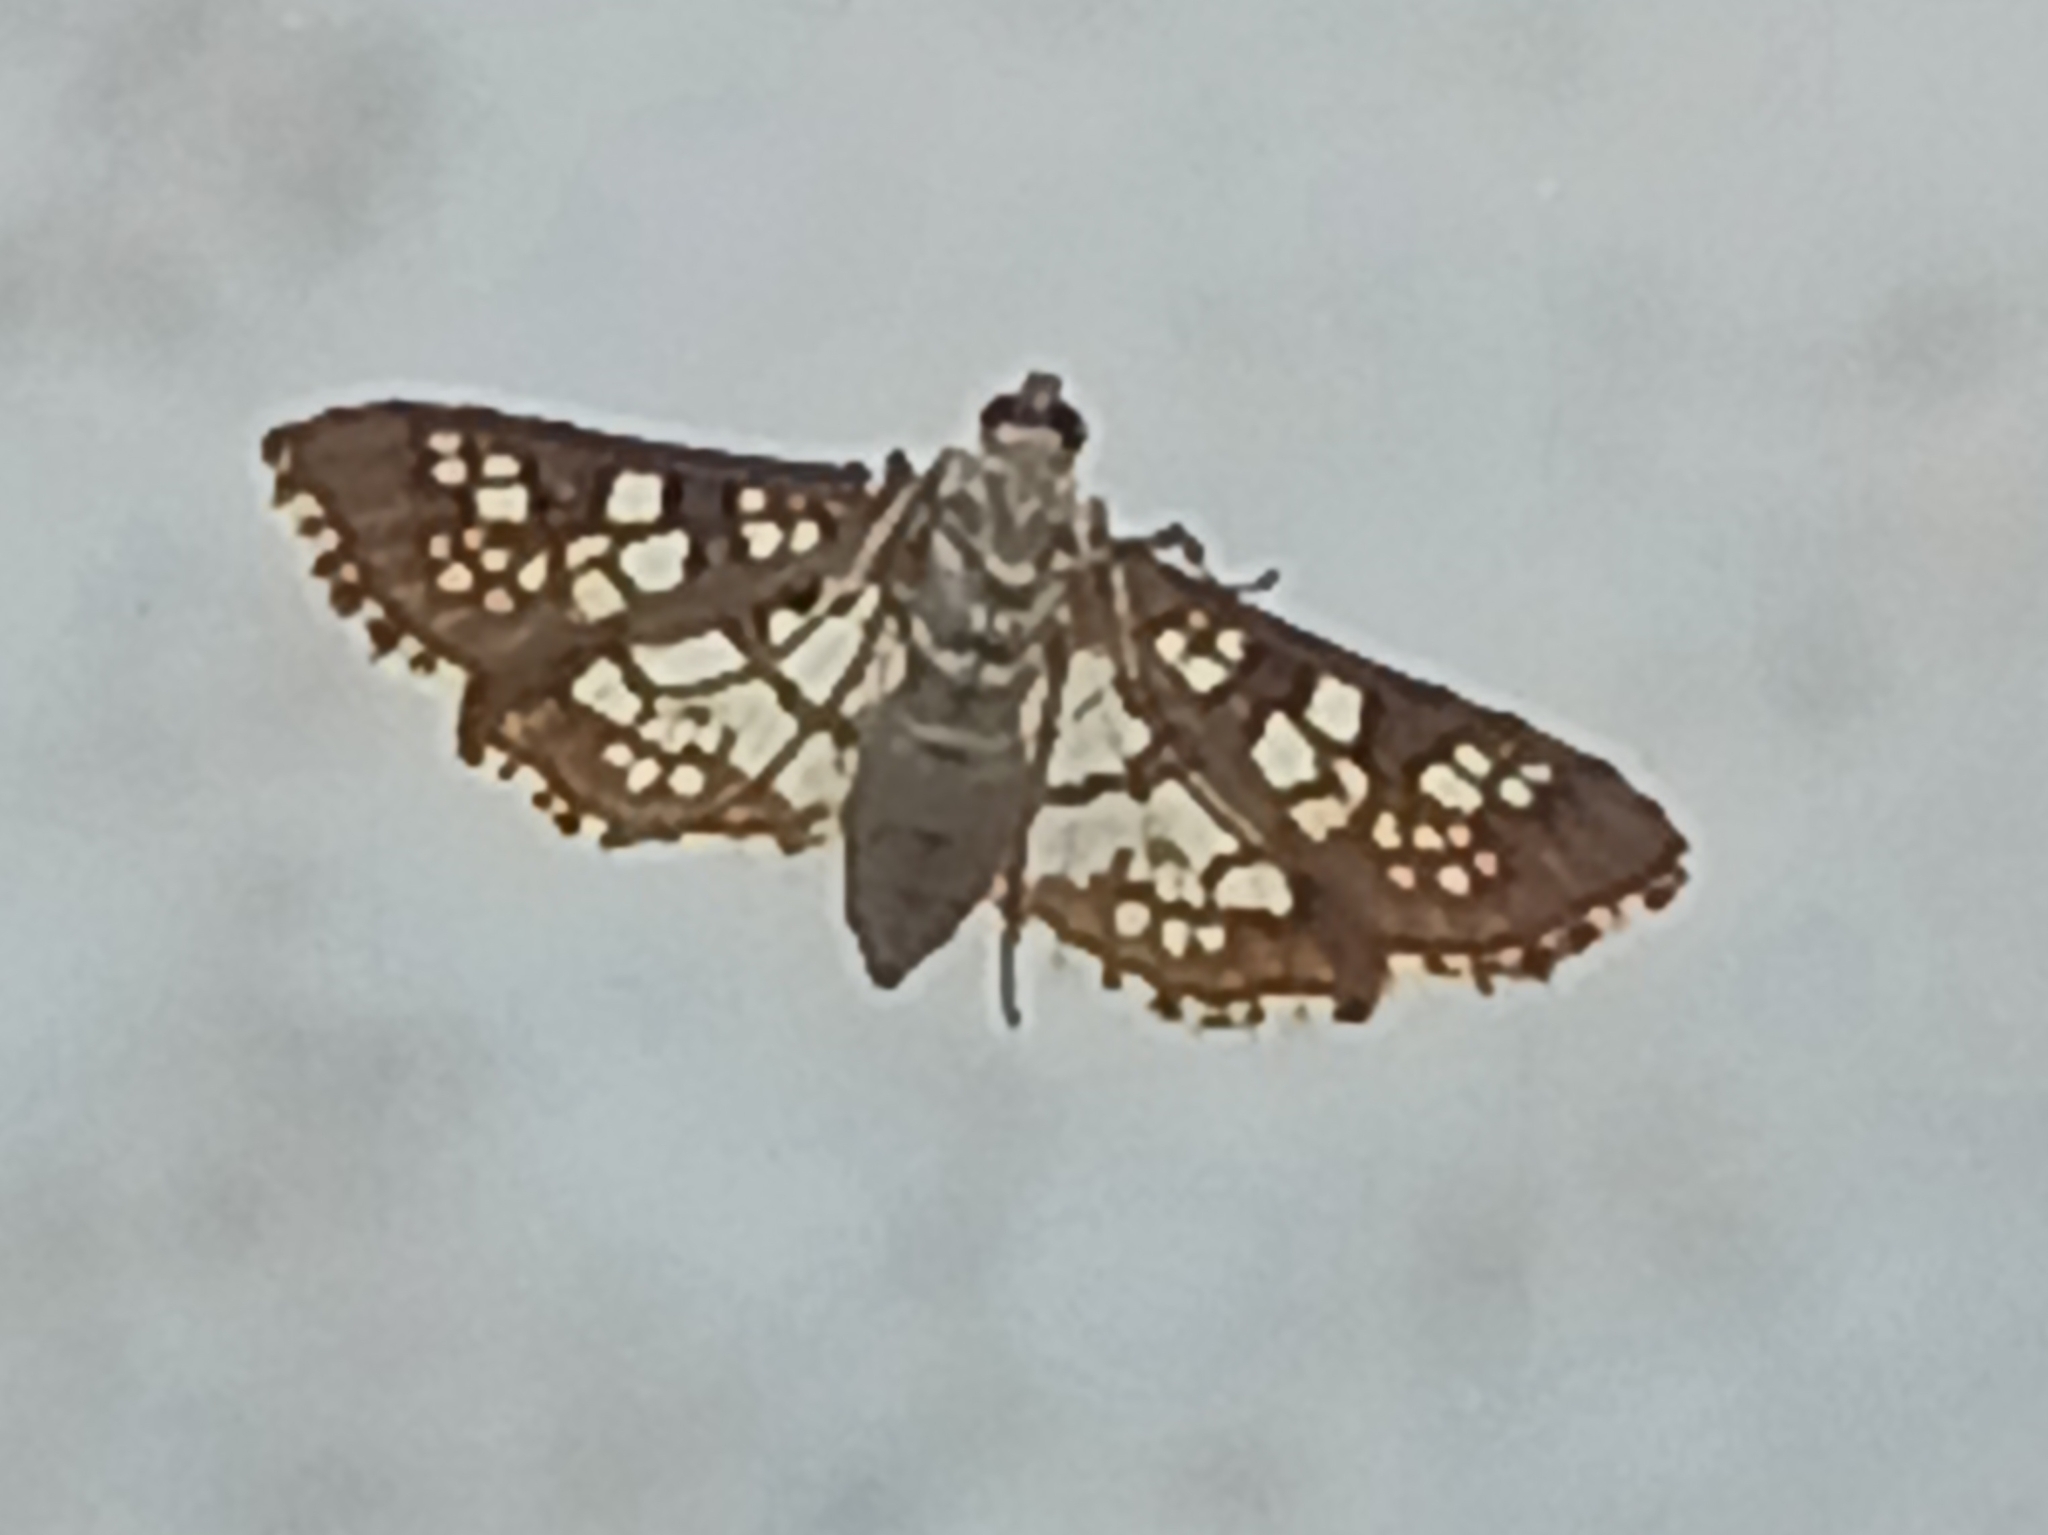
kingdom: Animalia
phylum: Arthropoda
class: Insecta
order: Lepidoptera
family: Crambidae
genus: Samea
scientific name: Samea ecclesialis
